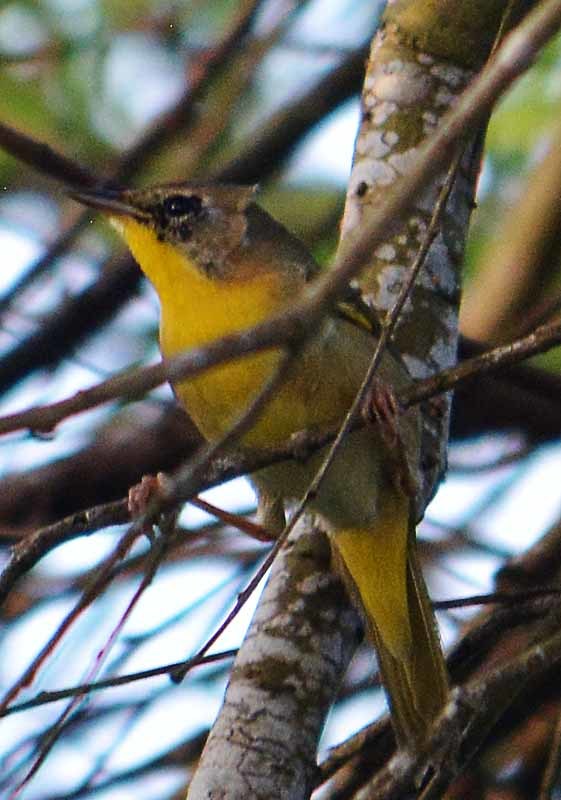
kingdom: Animalia
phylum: Chordata
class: Aves
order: Passeriformes
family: Parulidae
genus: Geothlypis
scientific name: Geothlypis trichas
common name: Common yellowthroat
